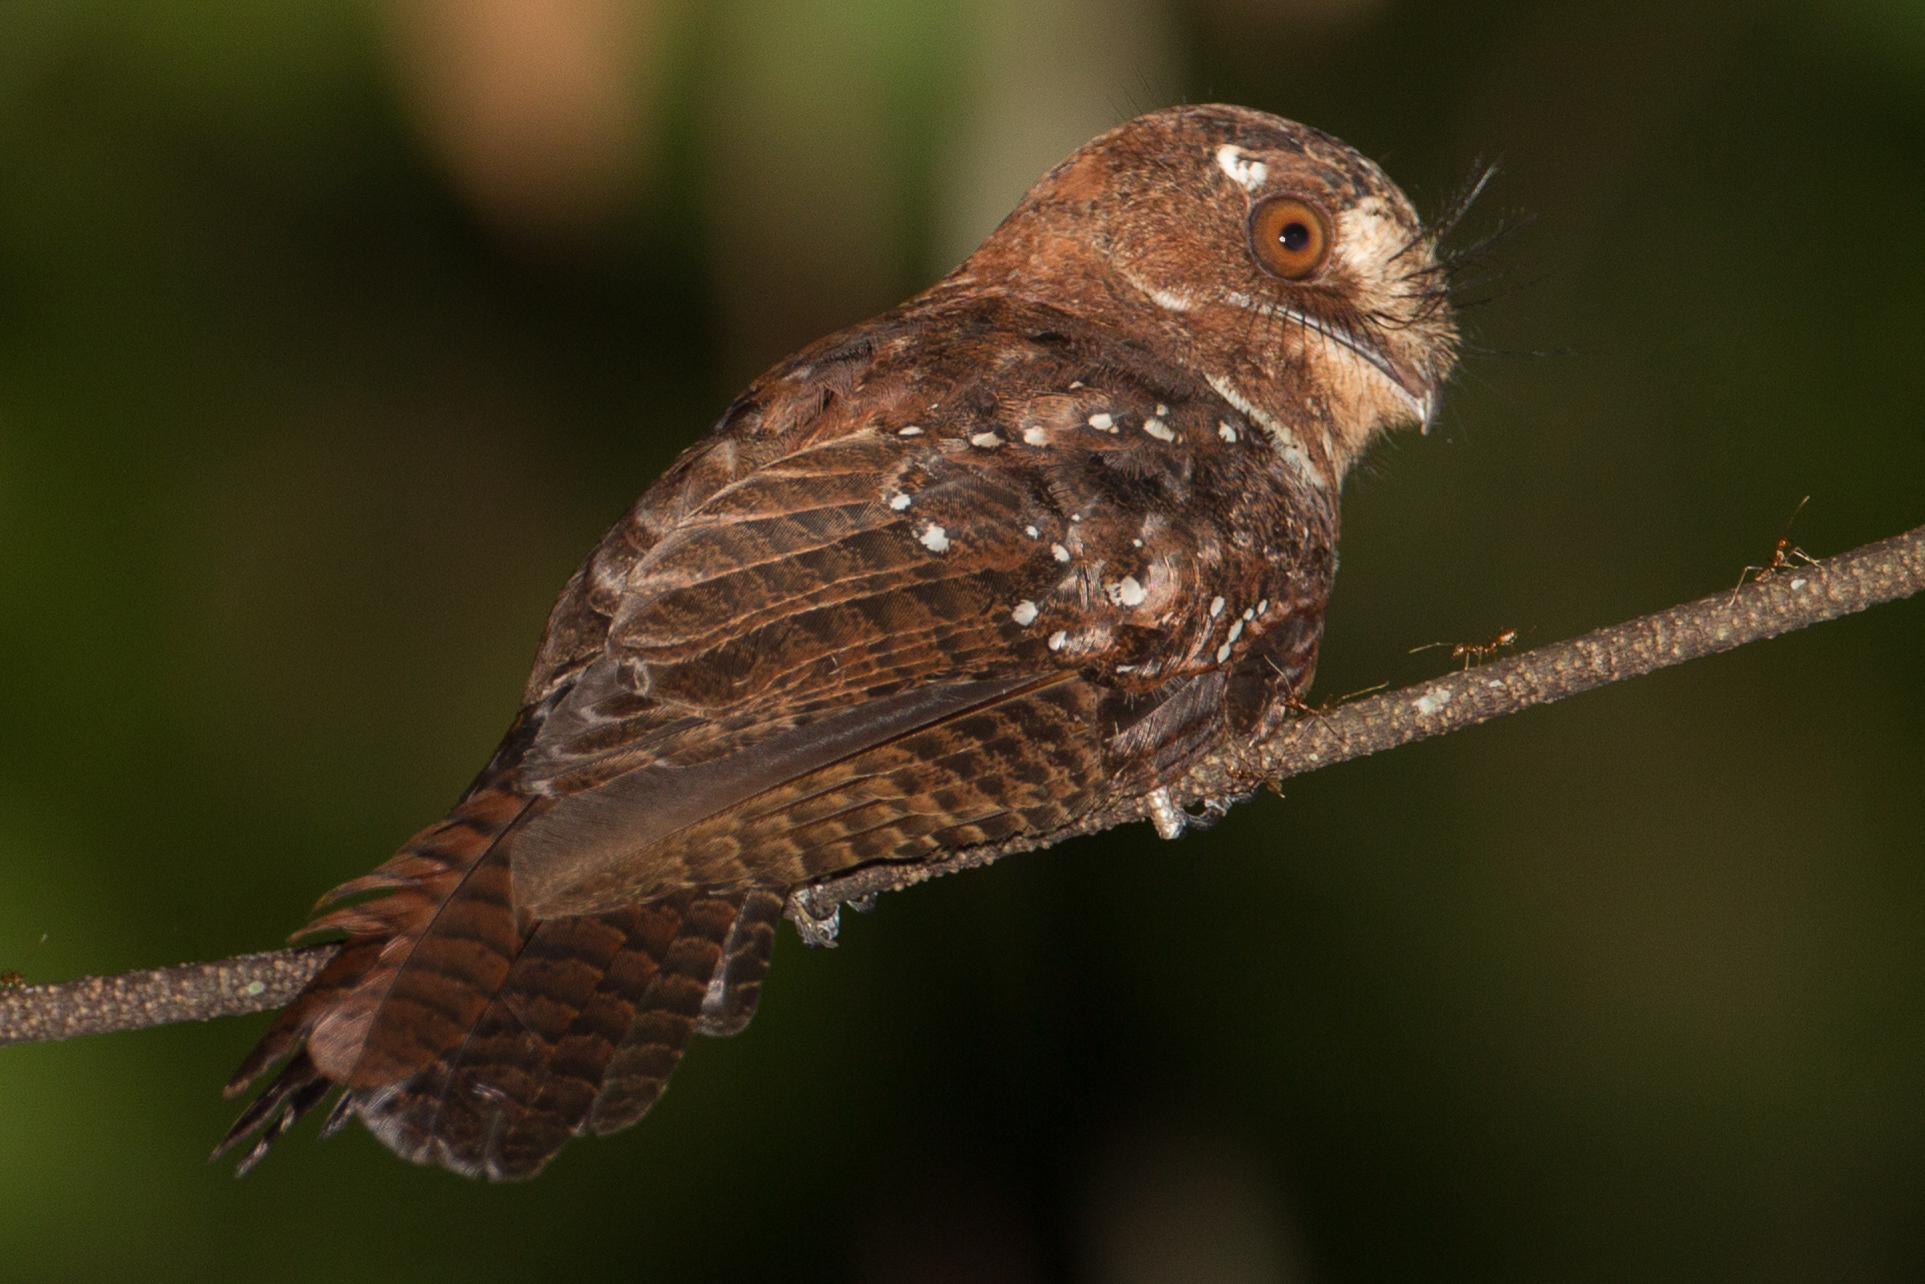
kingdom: Animalia
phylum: Chordata
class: Aves
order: Apodiformes
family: Aegothelidae
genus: Aegotheles
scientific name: Aegotheles crinifrons
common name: Moluccan owlet-nightjar
